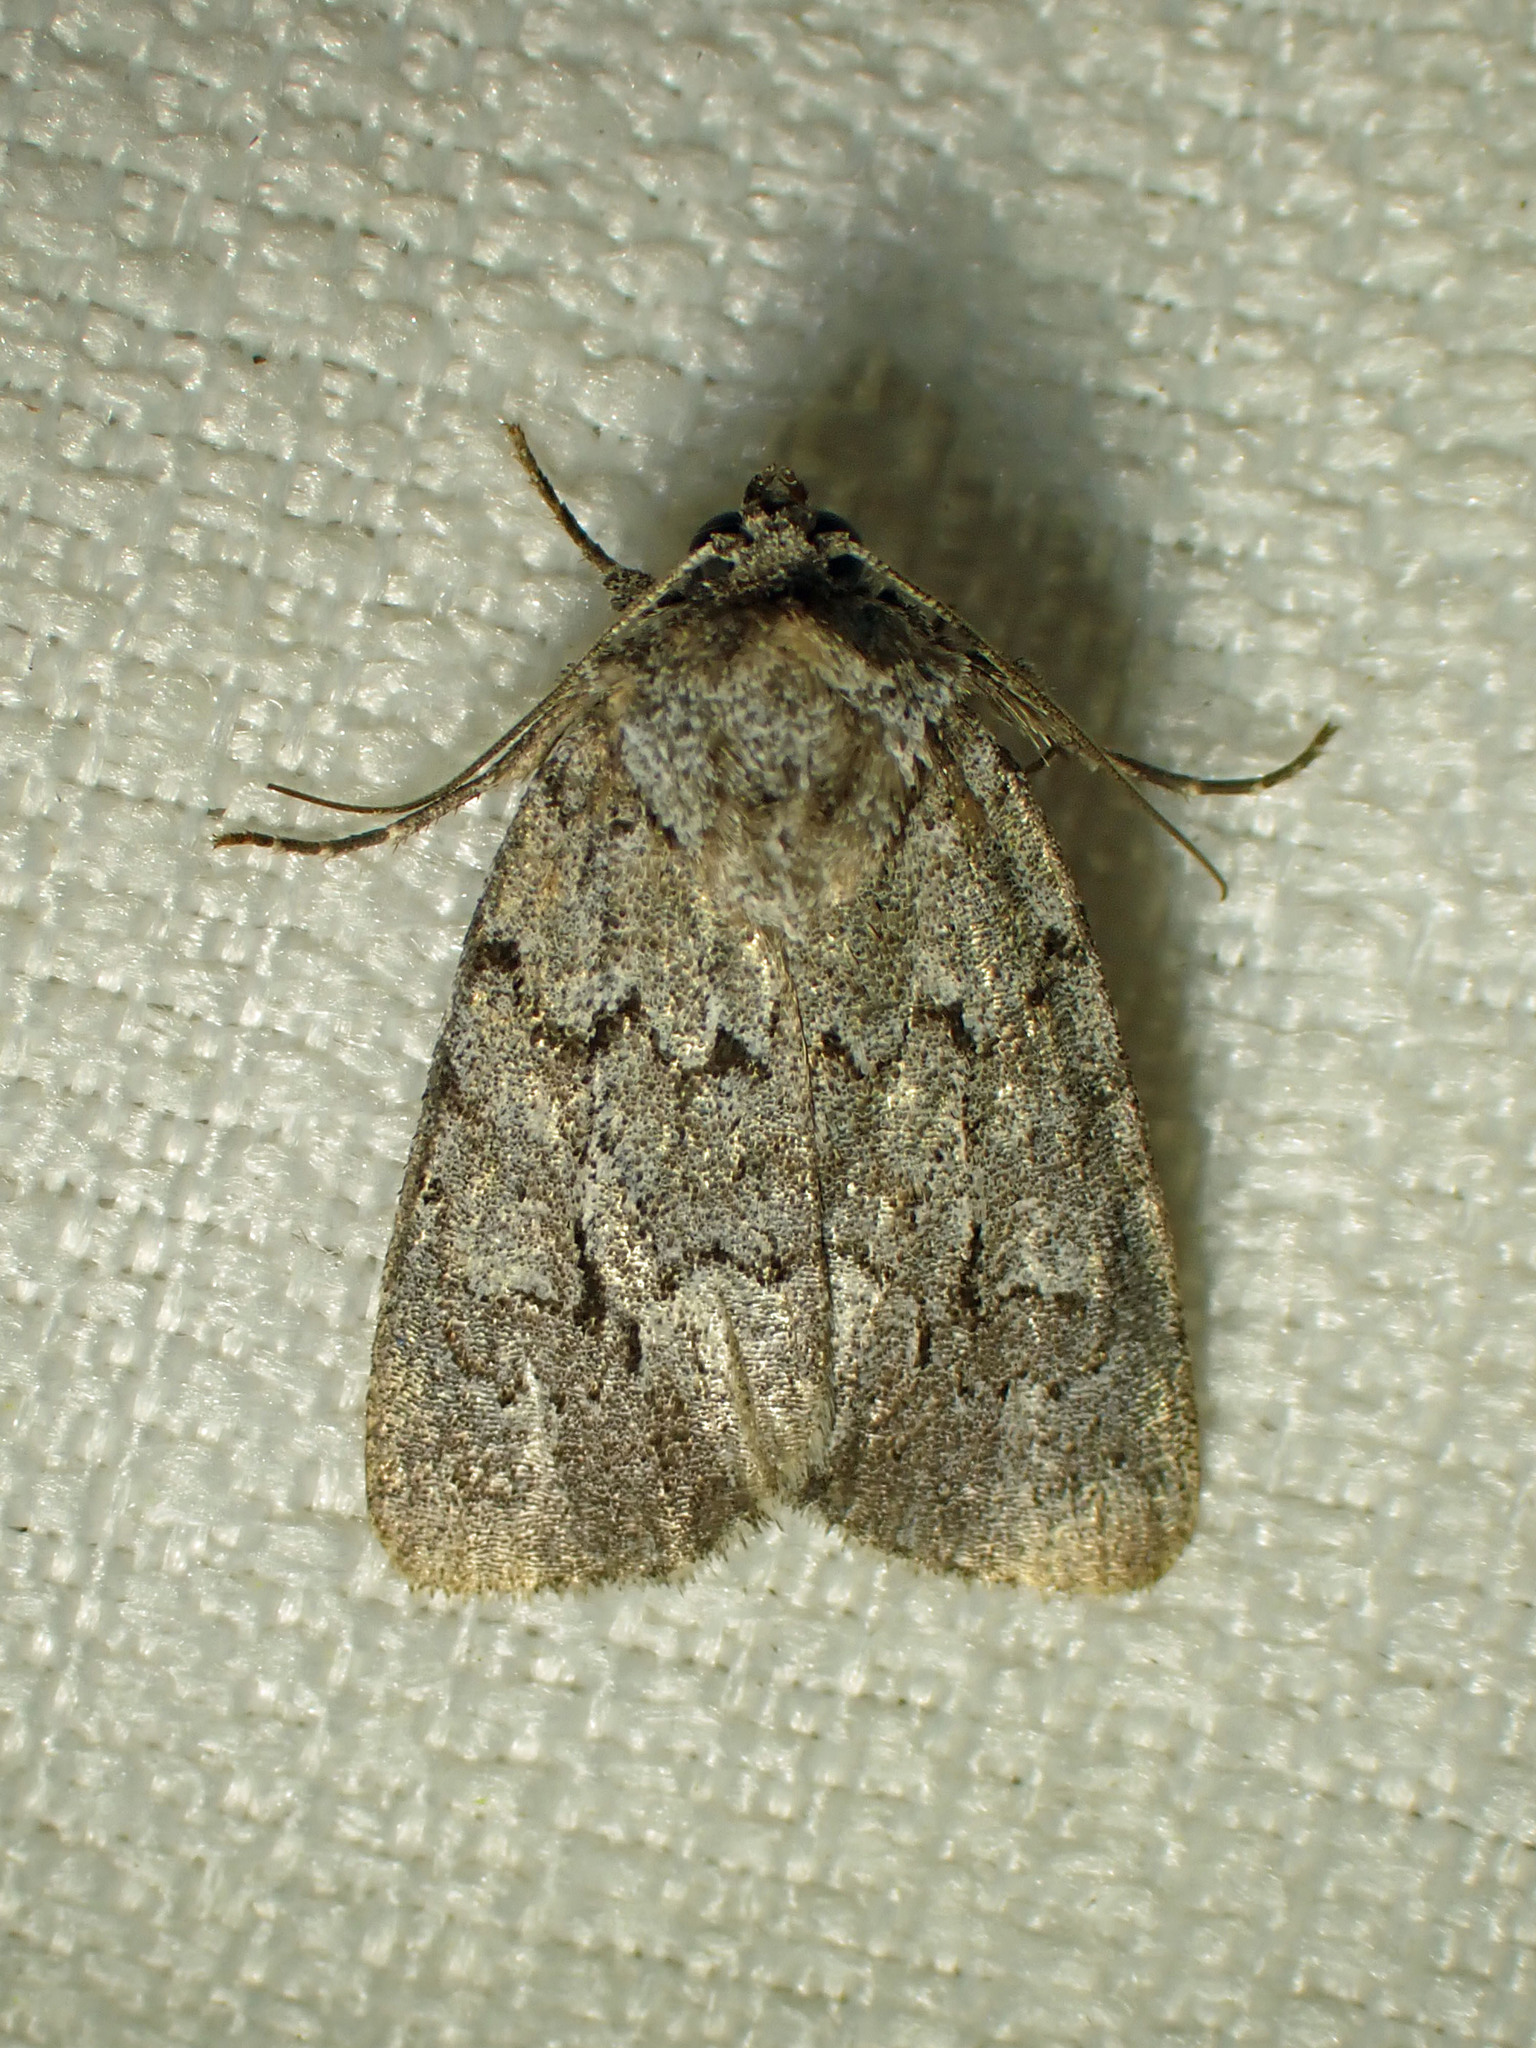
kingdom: Animalia
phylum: Arthropoda
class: Insecta
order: Lepidoptera
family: Noctuidae
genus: Sympistis
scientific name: Sympistis dentata
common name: Blueberry sallow
